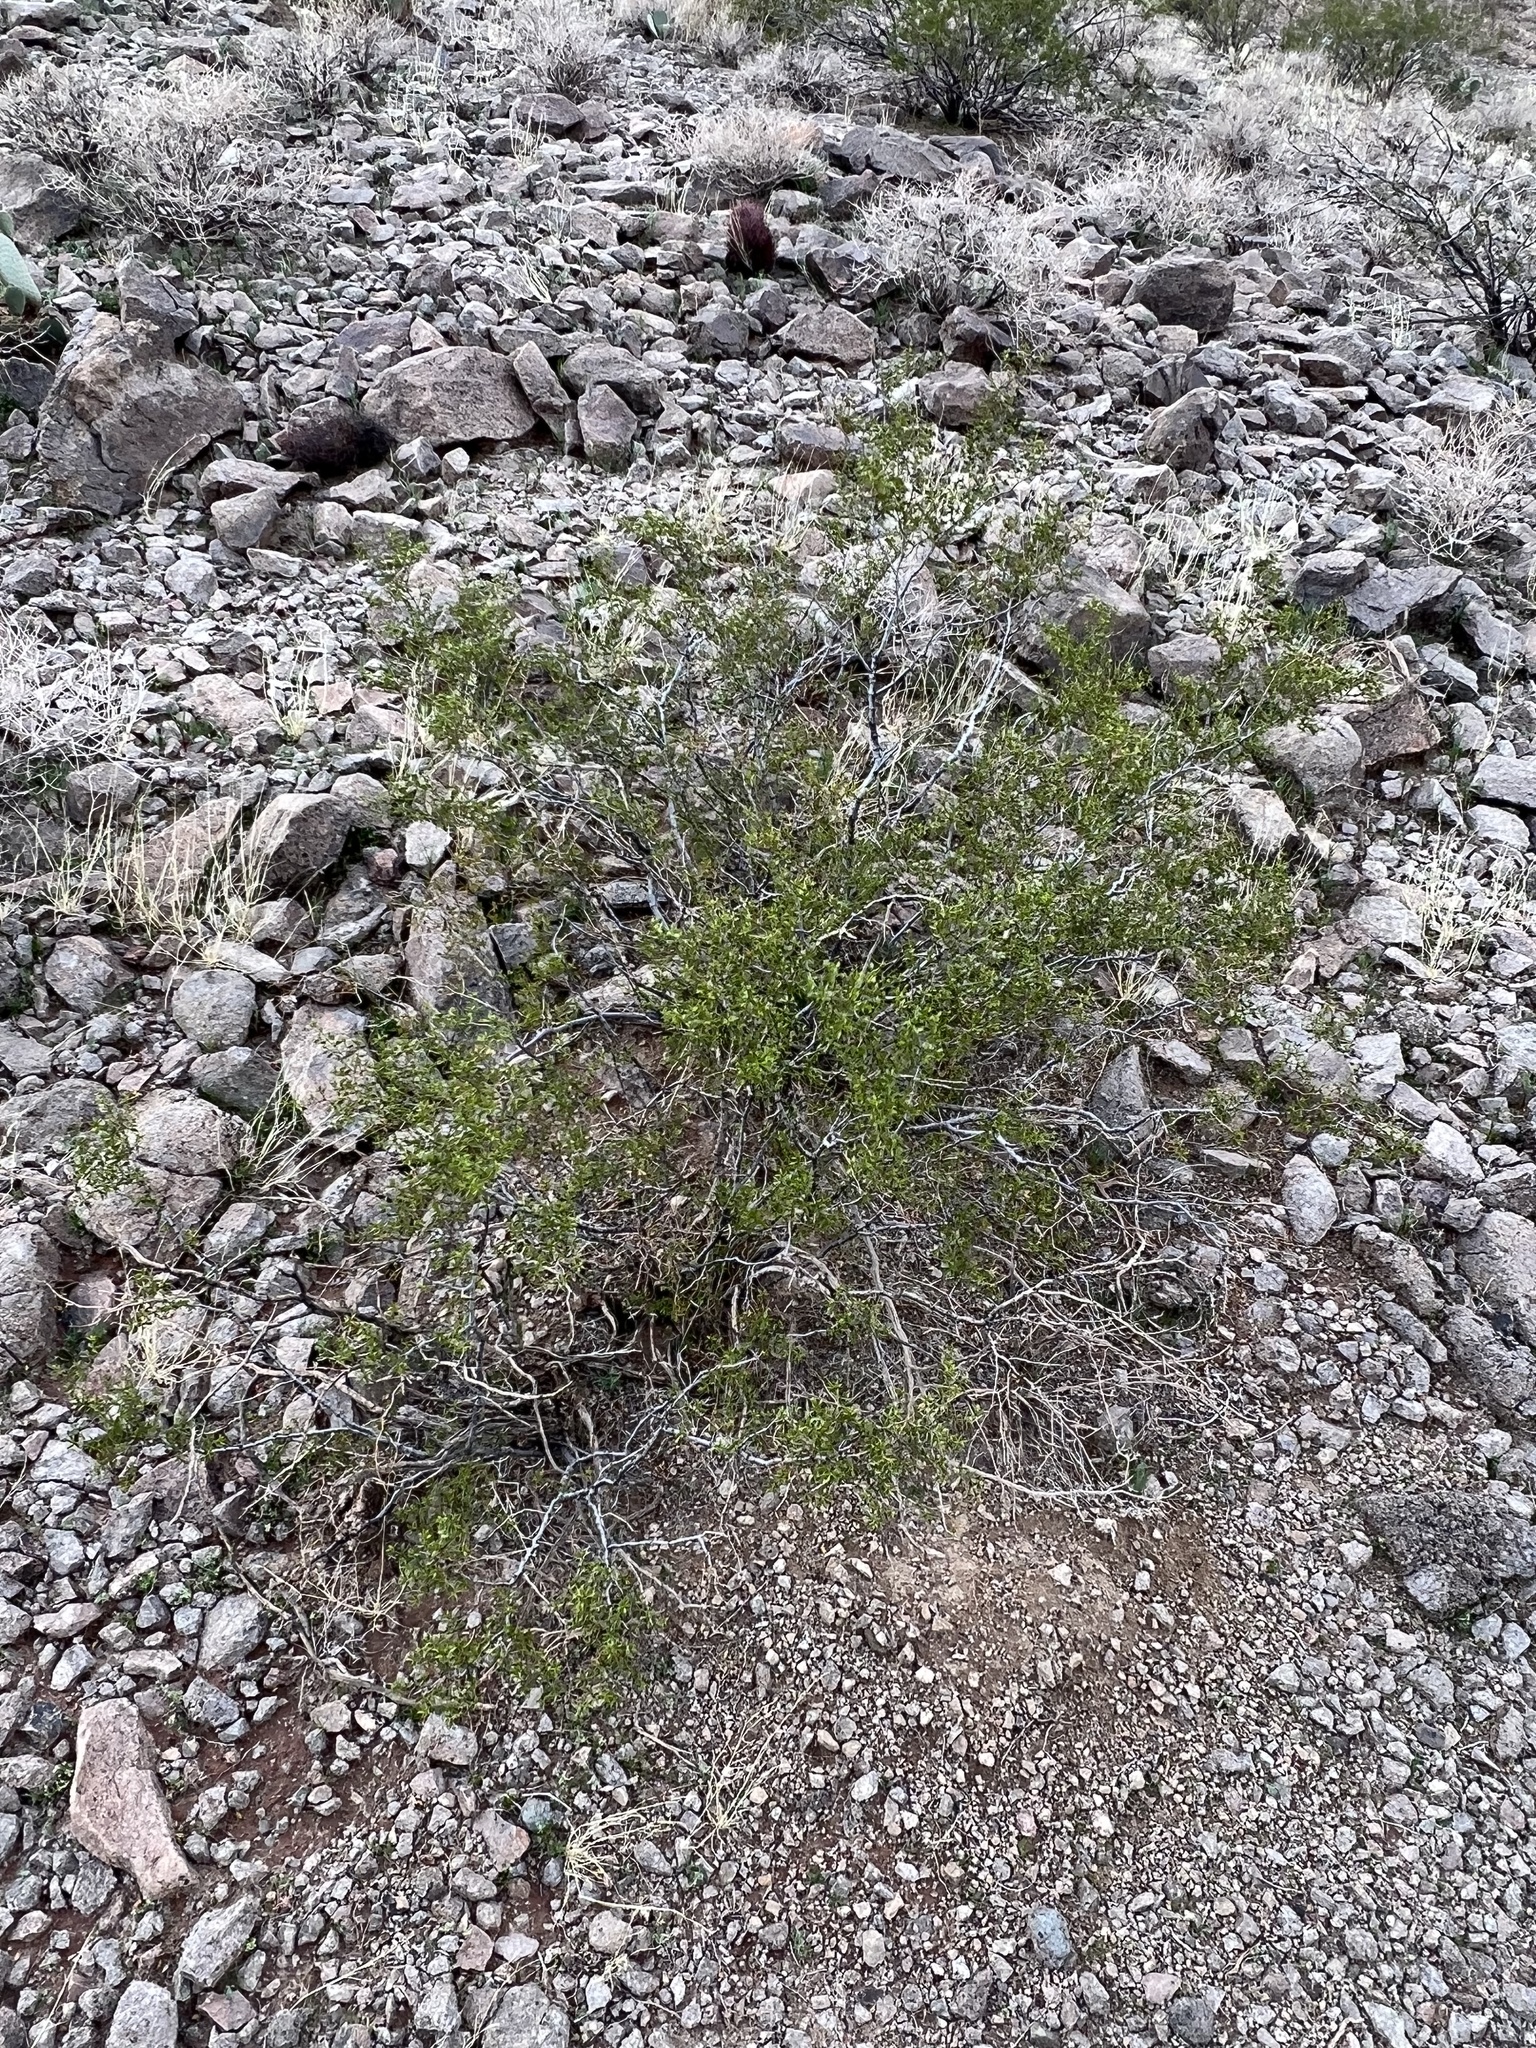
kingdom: Plantae
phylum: Tracheophyta
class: Magnoliopsida
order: Zygophyllales
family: Zygophyllaceae
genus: Larrea
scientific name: Larrea tridentata
